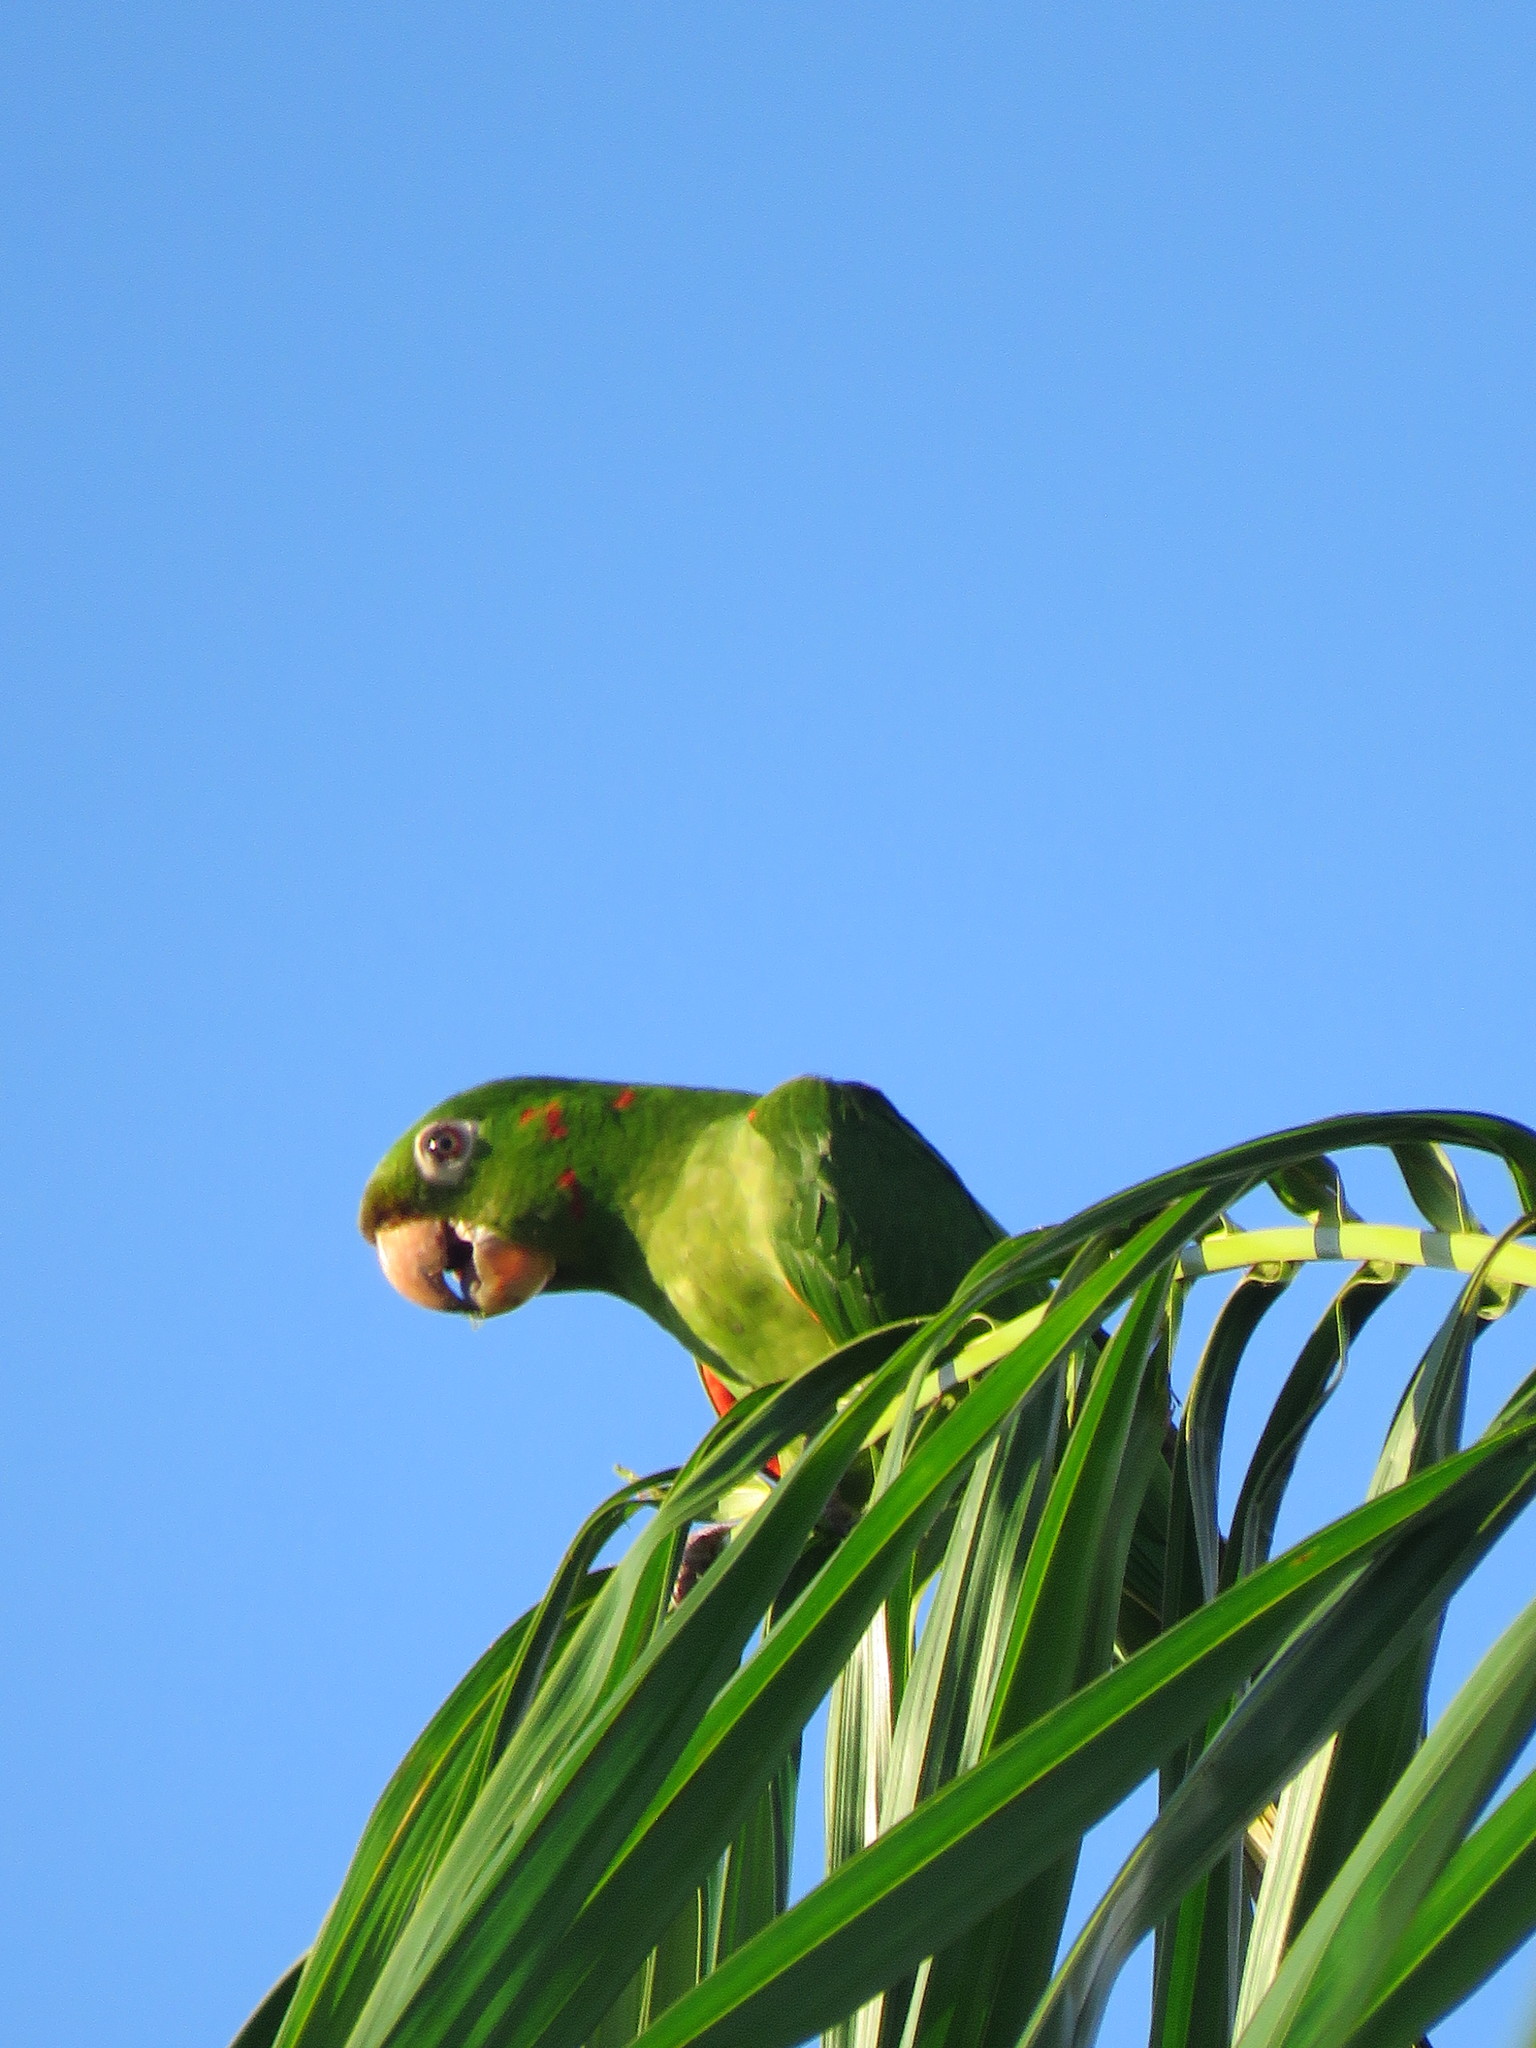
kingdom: Animalia
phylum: Chordata
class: Aves
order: Psittaciformes
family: Psittacidae
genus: Aratinga
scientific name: Aratinga leucophthalma
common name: White-eyed parakeet
